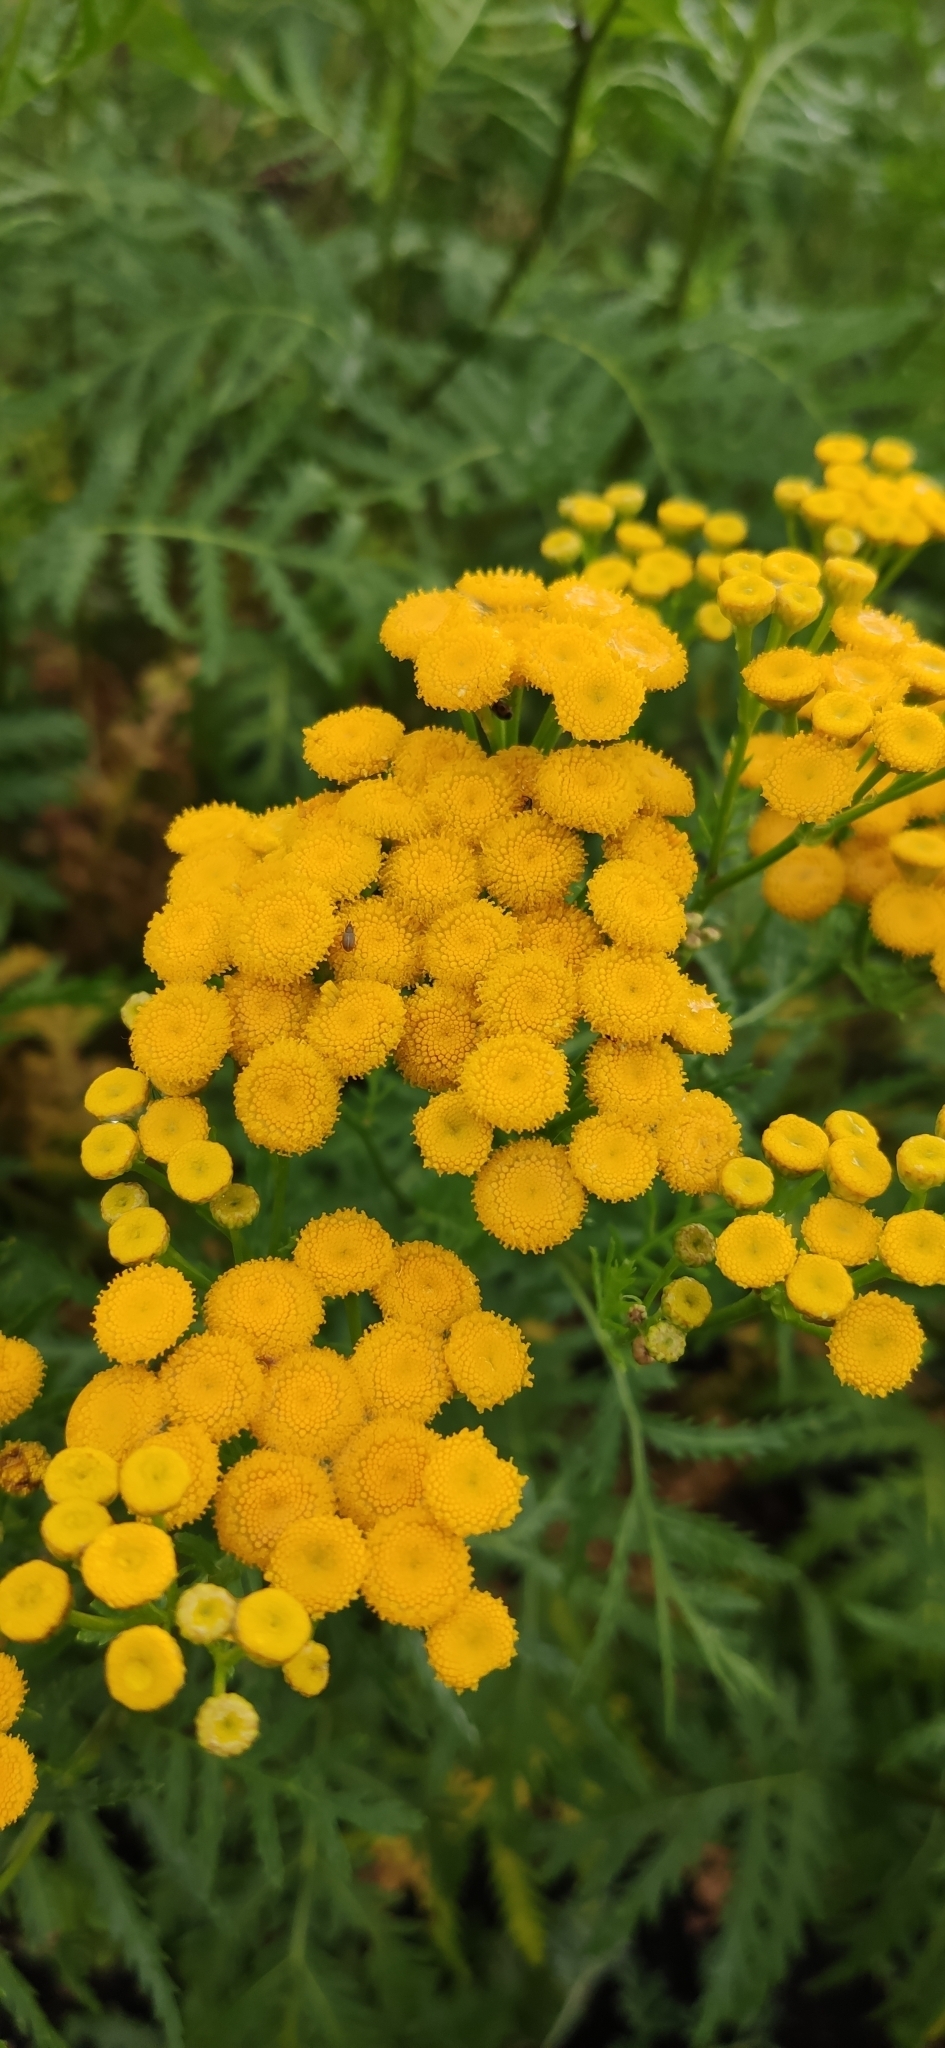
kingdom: Plantae
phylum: Tracheophyta
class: Magnoliopsida
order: Asterales
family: Asteraceae
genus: Tanacetum
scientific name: Tanacetum vulgare
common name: Common tansy
